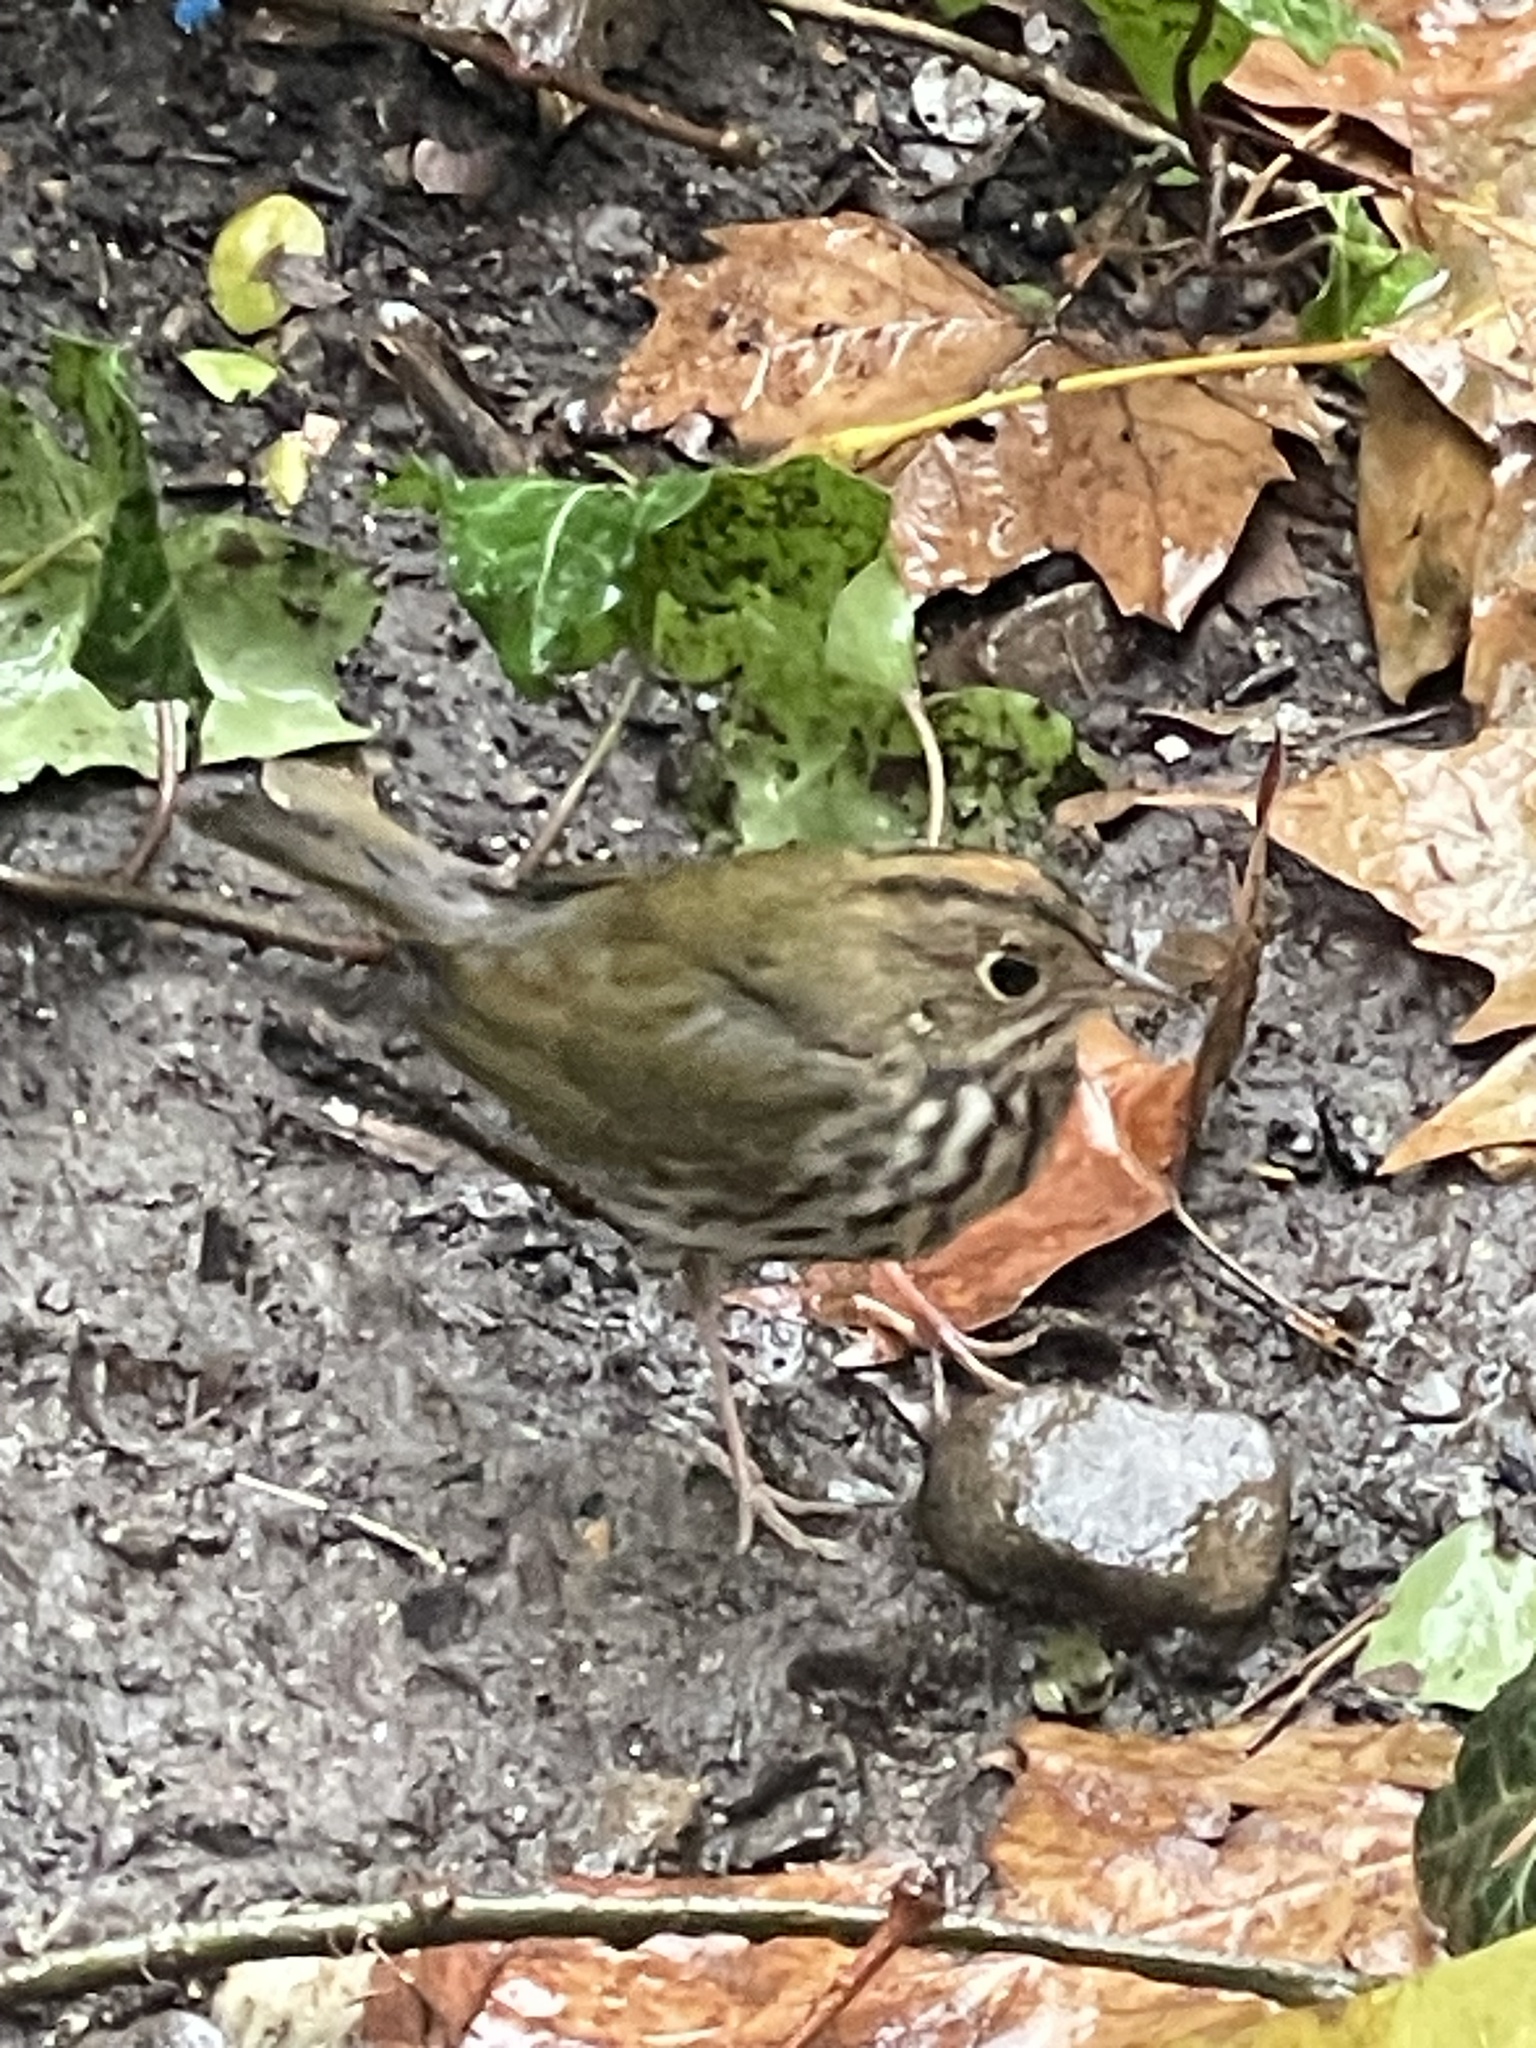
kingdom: Animalia
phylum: Chordata
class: Aves
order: Passeriformes
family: Parulidae
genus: Seiurus
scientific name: Seiurus aurocapilla
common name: Ovenbird
